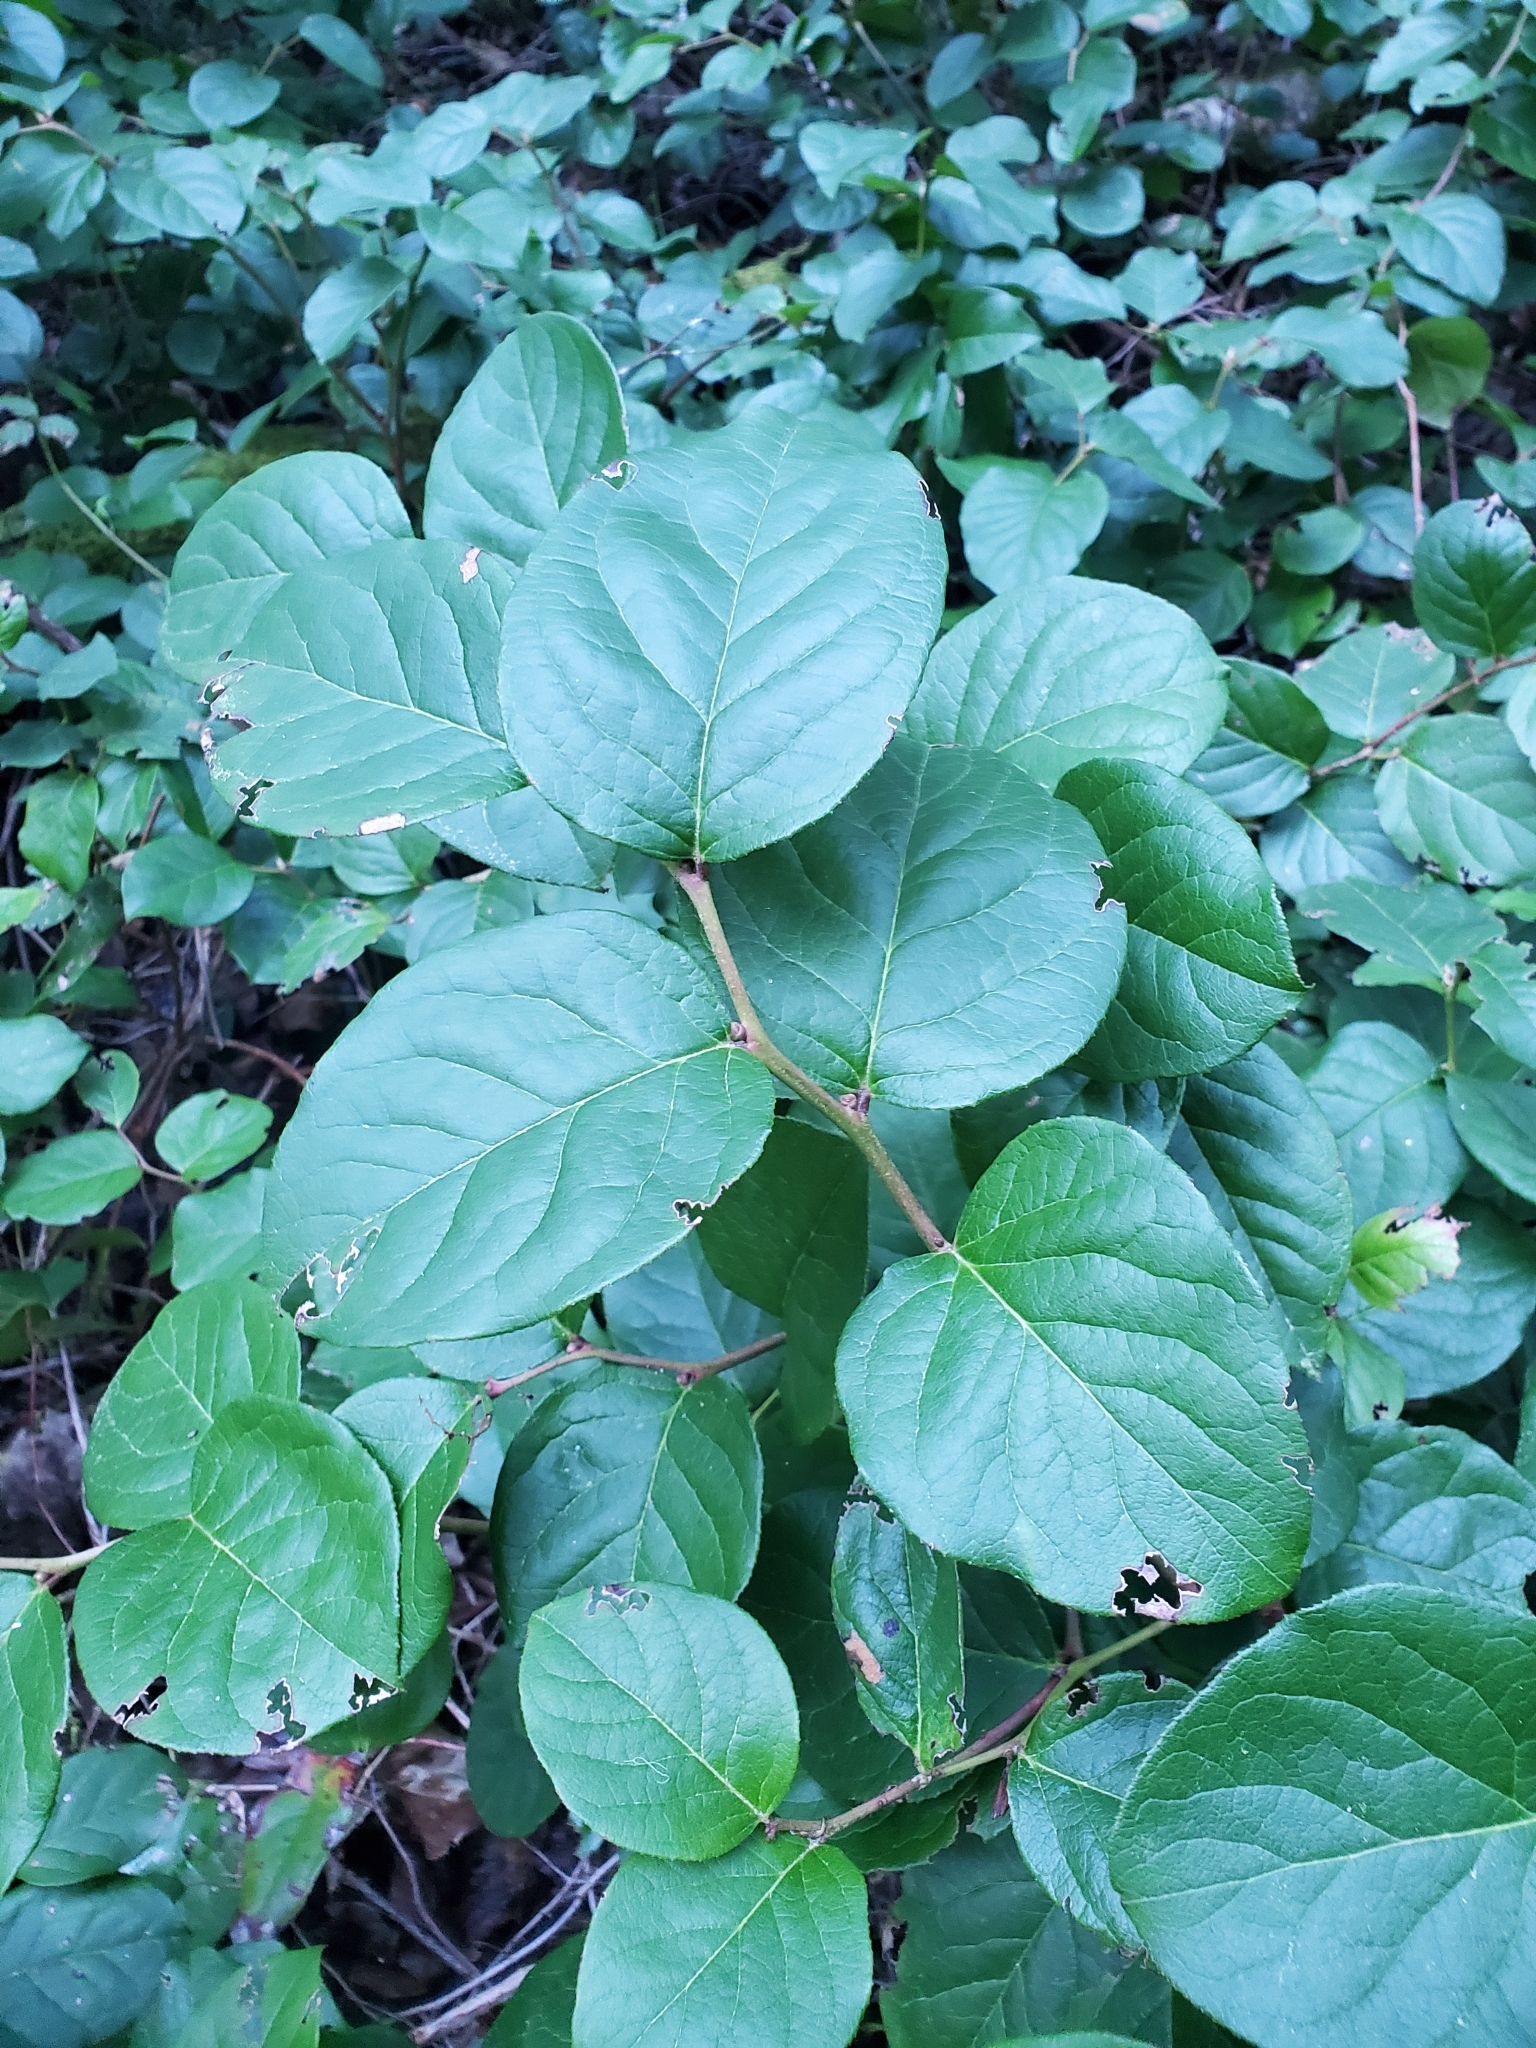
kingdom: Plantae
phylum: Tracheophyta
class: Magnoliopsida
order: Ericales
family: Ericaceae
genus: Gaultheria
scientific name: Gaultheria shallon
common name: Shallon
